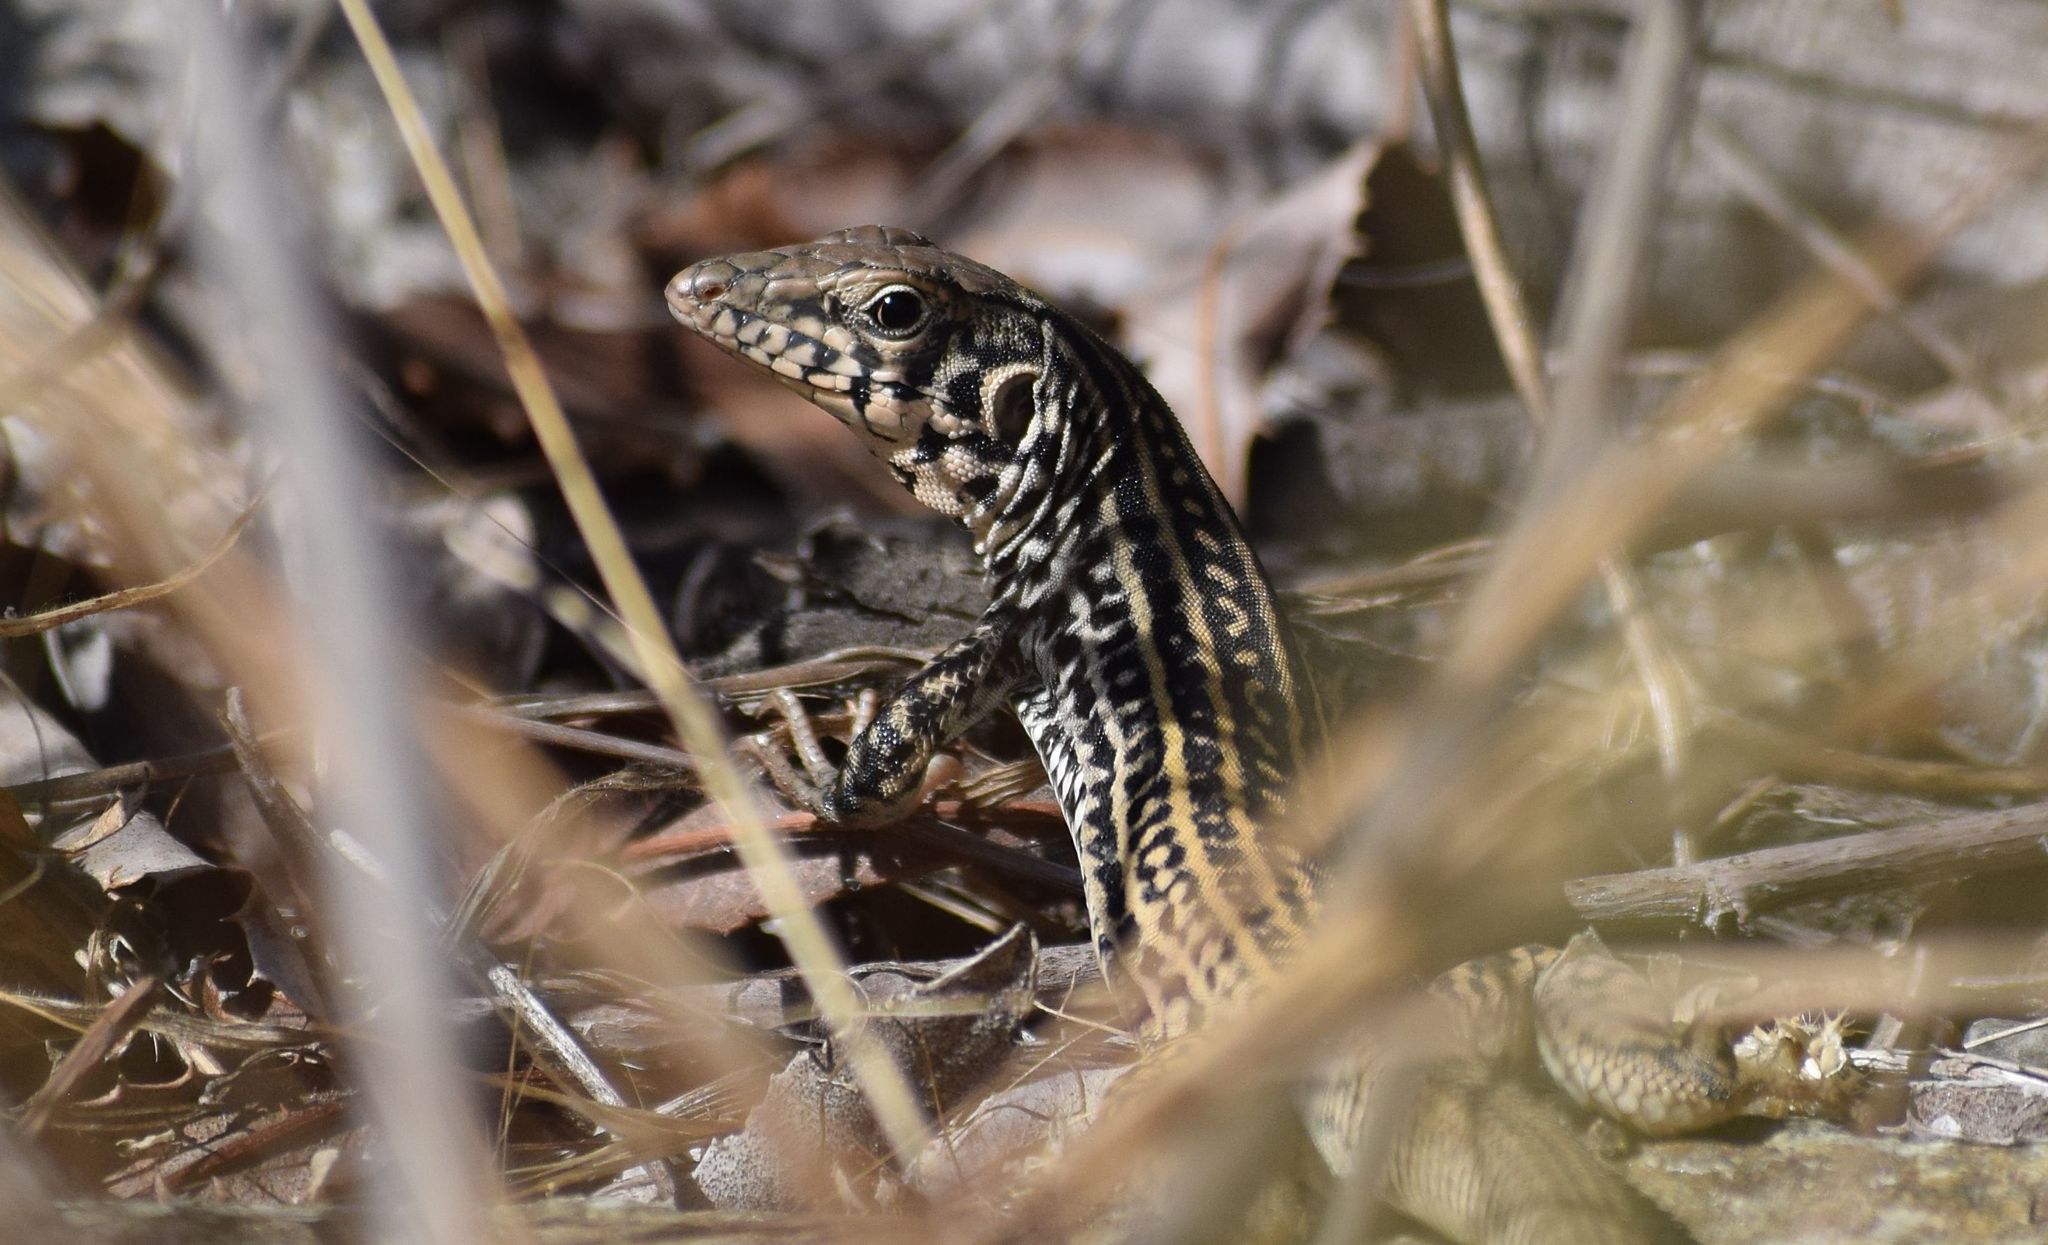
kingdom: Animalia
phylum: Chordata
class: Squamata
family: Teiidae
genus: Aspidoscelis
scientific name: Aspidoscelis tigris
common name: Tiger whiptail
